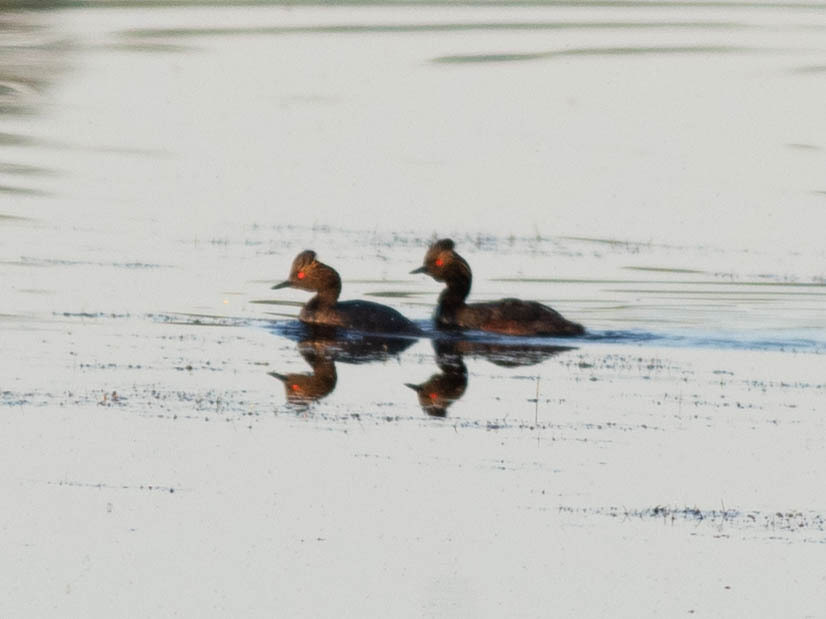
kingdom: Animalia
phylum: Chordata
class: Aves
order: Podicipediformes
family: Podicipedidae
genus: Podiceps
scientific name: Podiceps nigricollis
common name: Black-necked grebe
